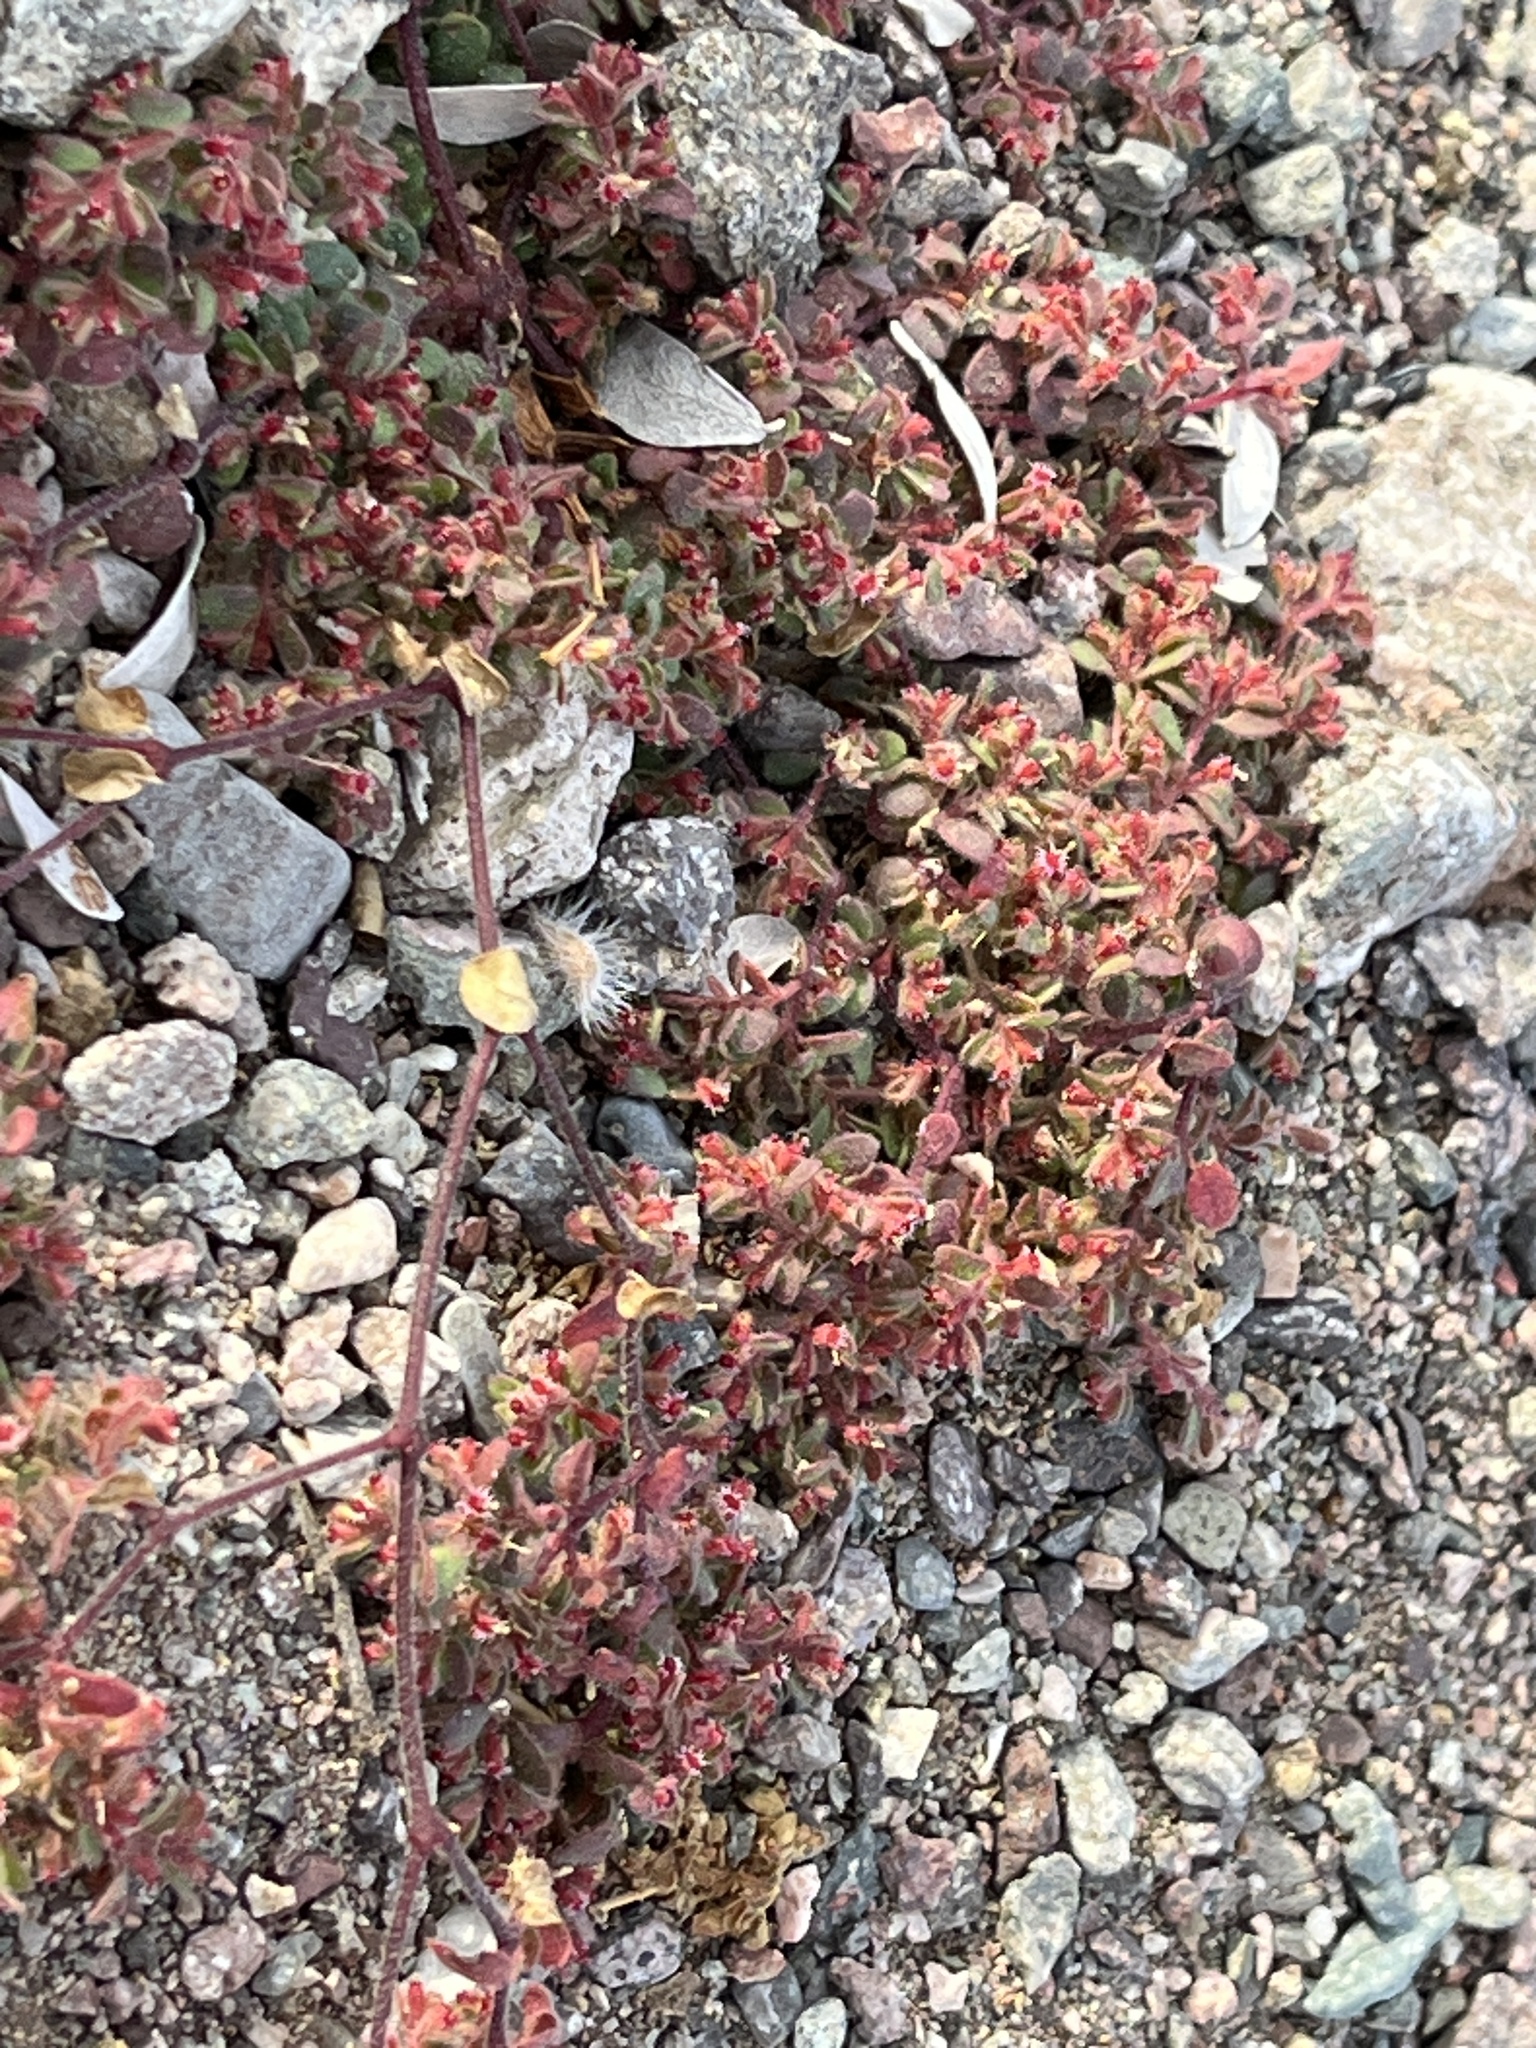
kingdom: Plantae
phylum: Tracheophyta
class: Magnoliopsida
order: Malpighiales
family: Euphorbiaceae
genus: Euphorbia
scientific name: Euphorbia setiloba
